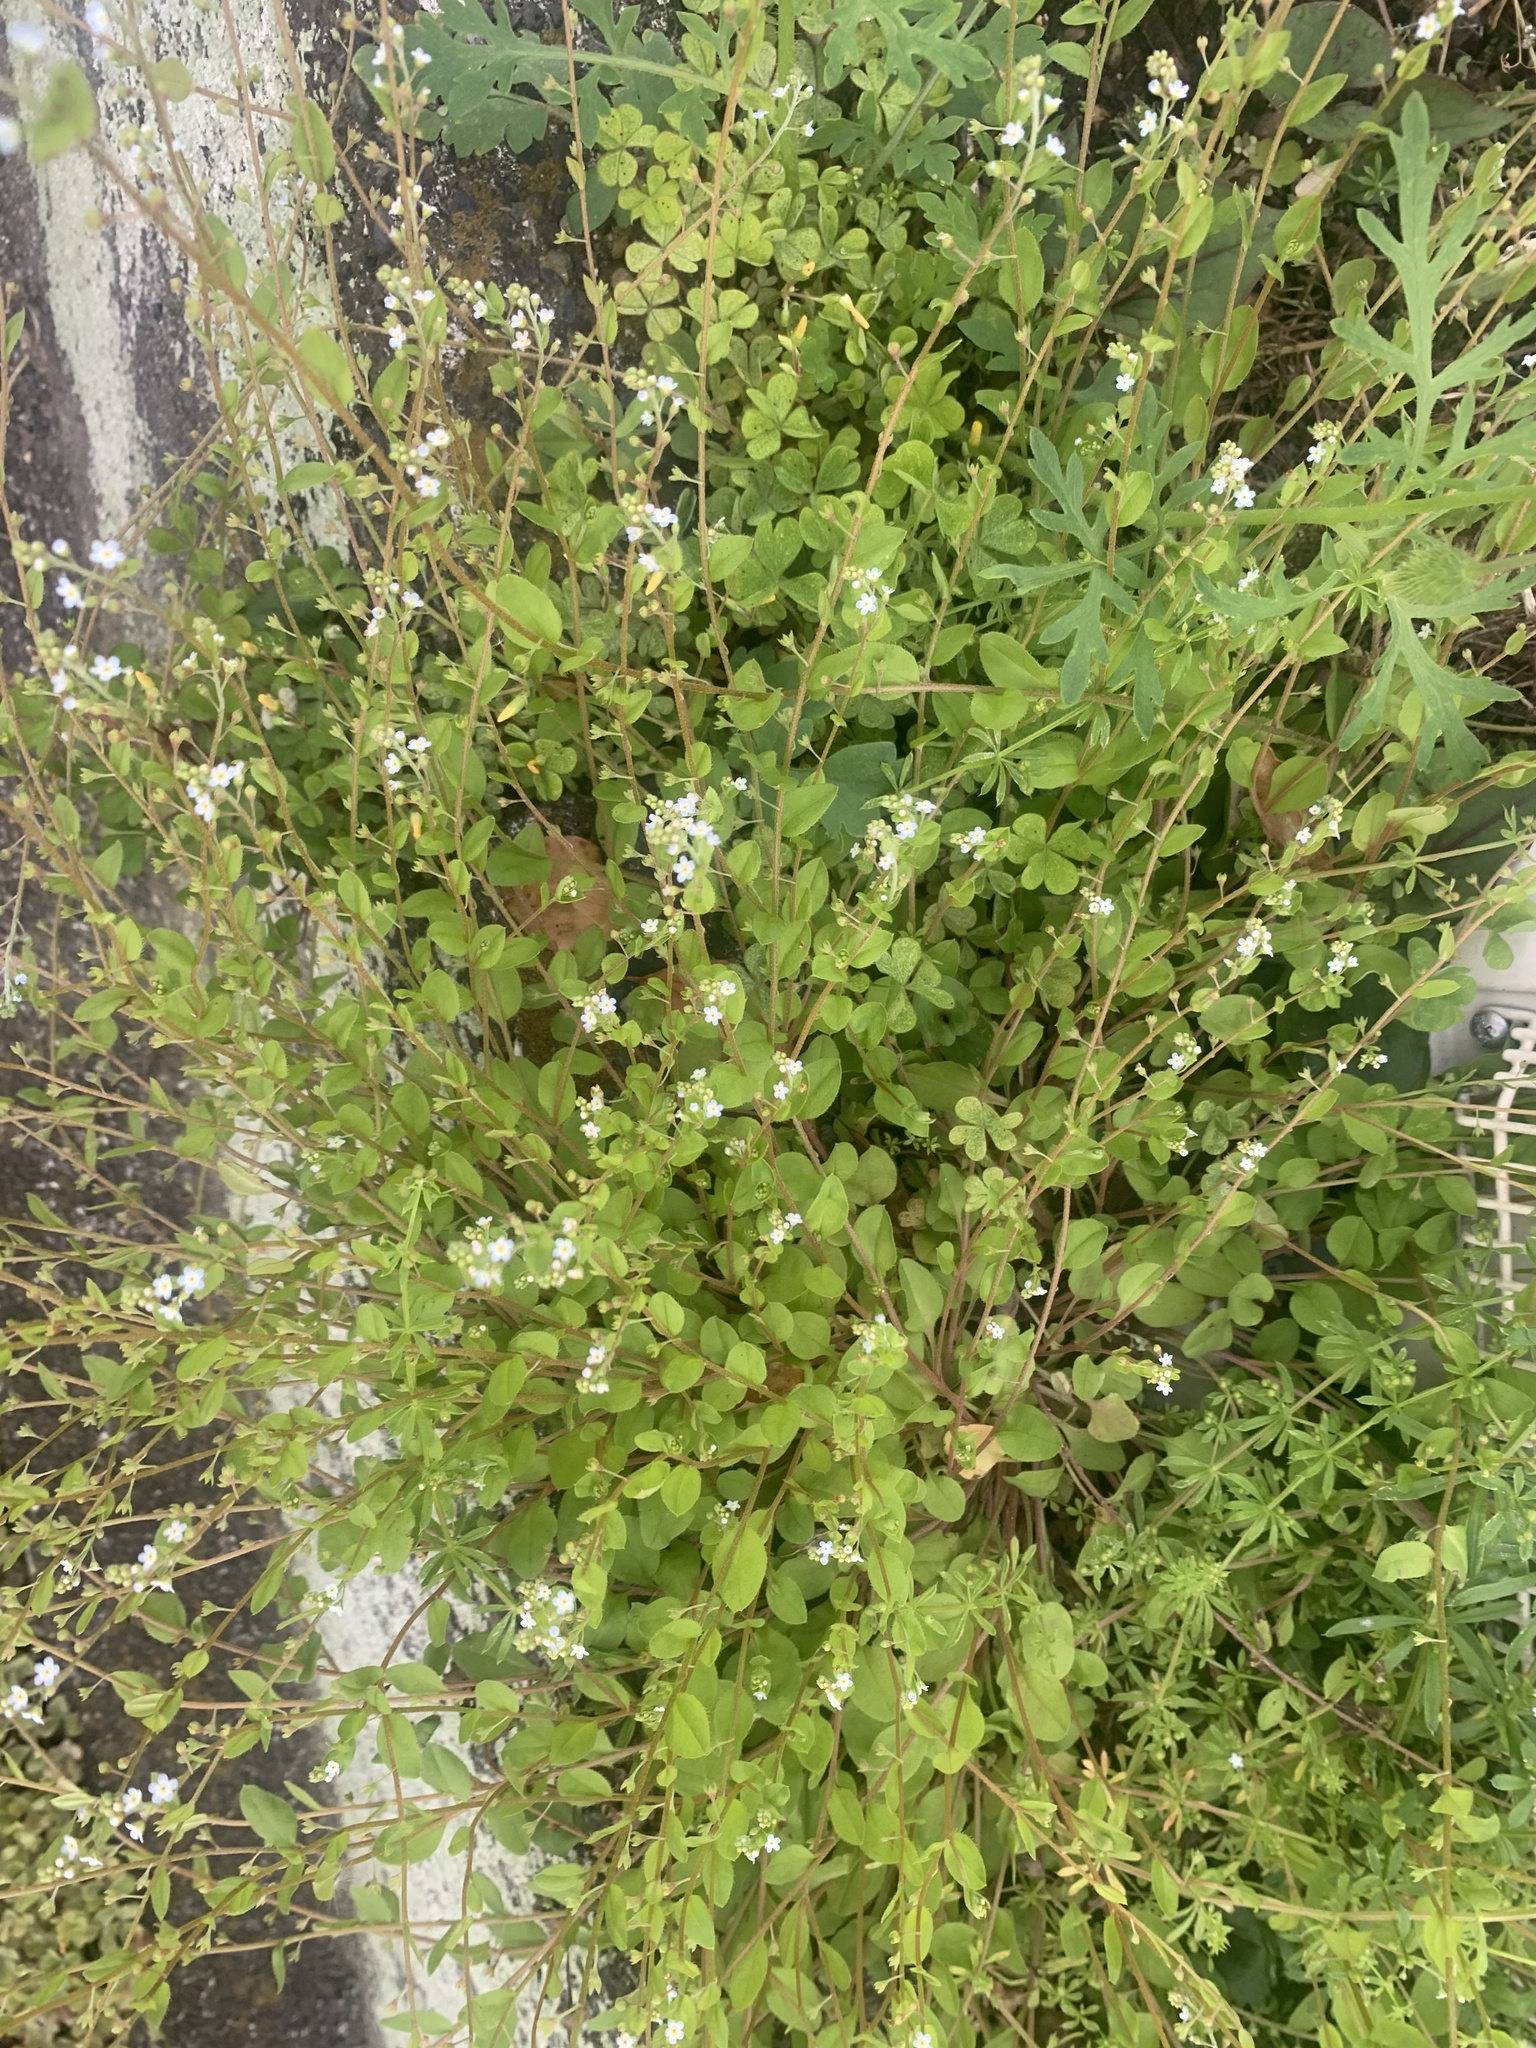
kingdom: Plantae
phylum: Tracheophyta
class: Magnoliopsida
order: Boraginales
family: Boraginaceae
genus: Trigonotis
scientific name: Trigonotis peduncularis
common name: Cucumber herb
